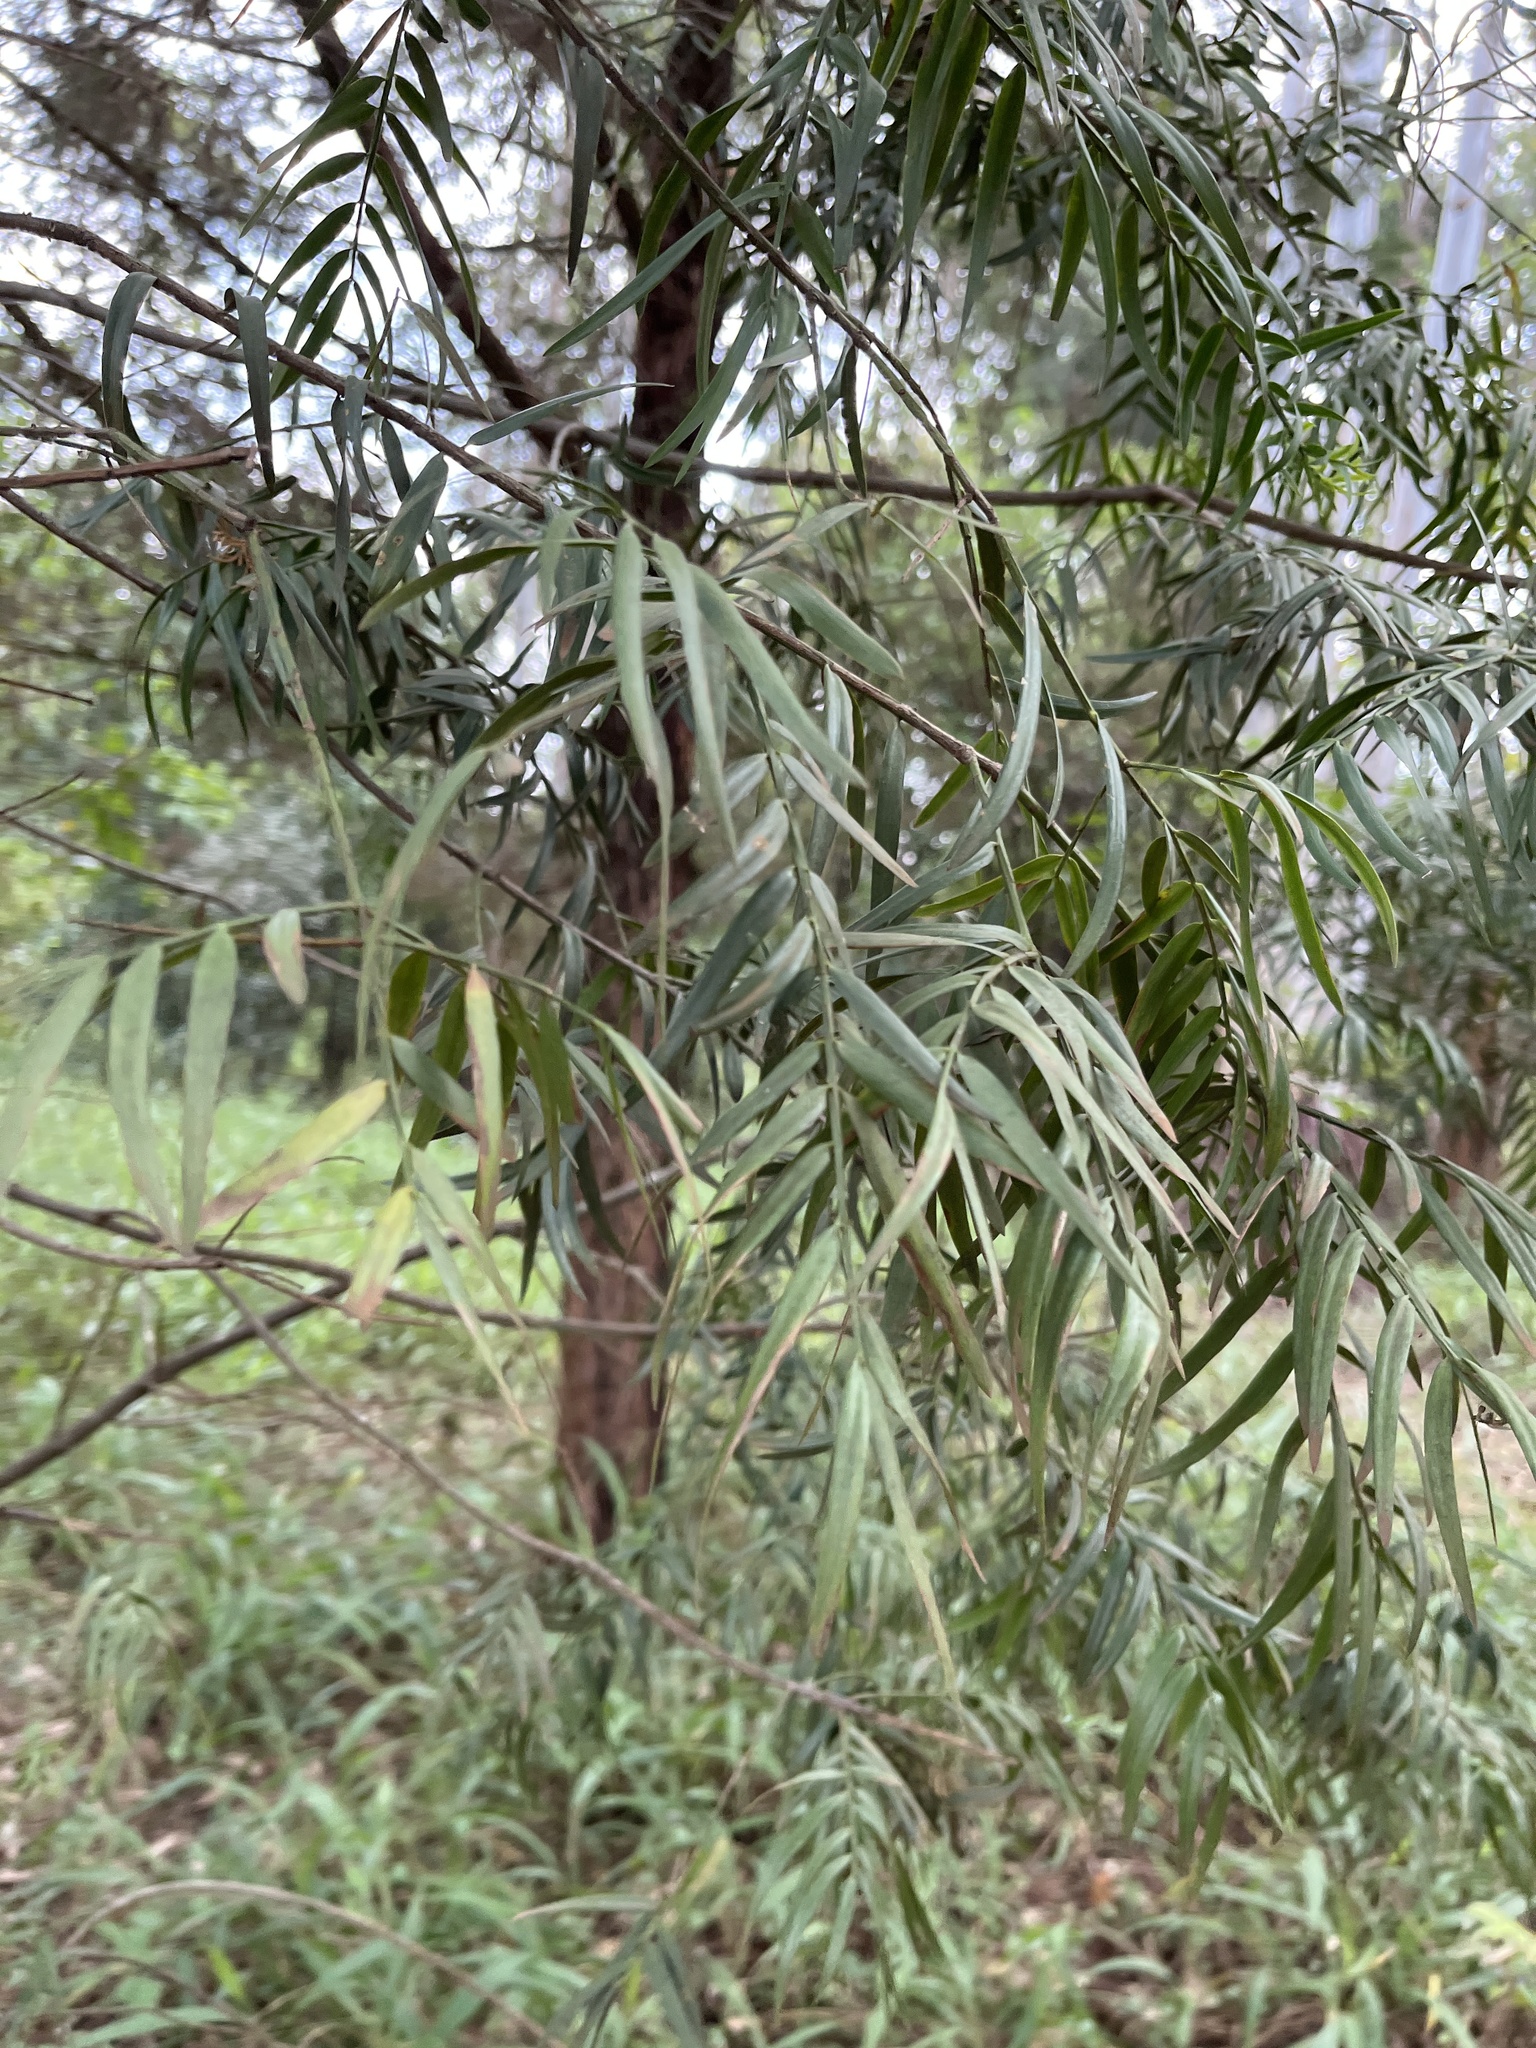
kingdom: Plantae
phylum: Tracheophyta
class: Pinopsida
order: Pinales
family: Podocarpaceae
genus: Afrocarpus
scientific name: Afrocarpus falcatus
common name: Bastard yellowwood
